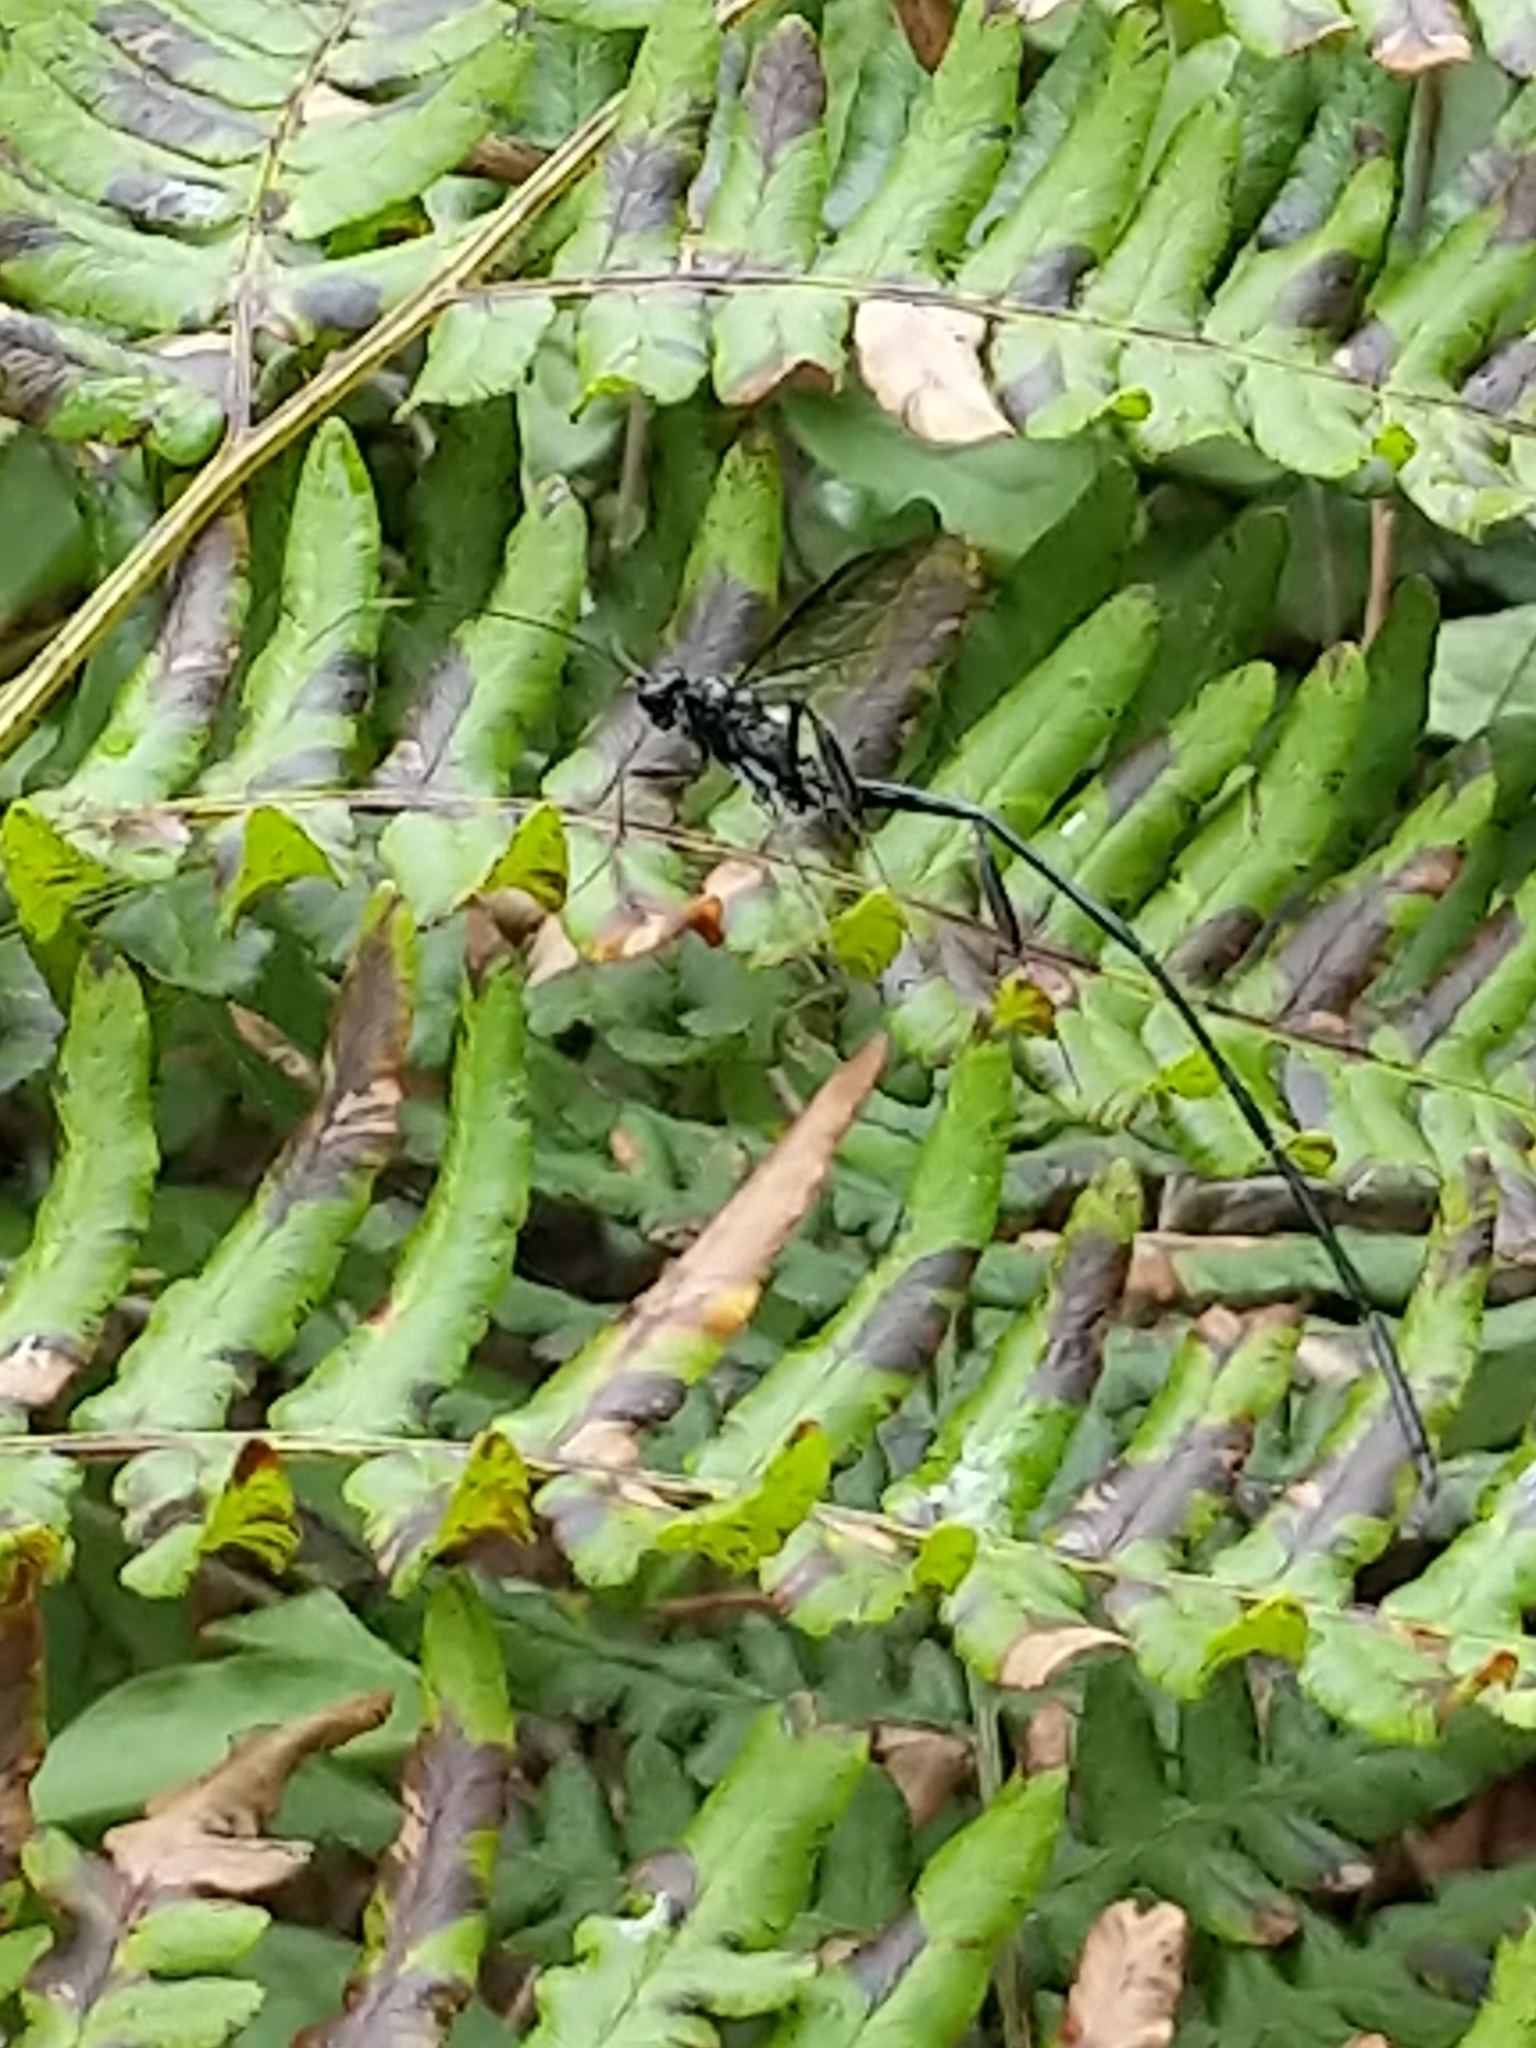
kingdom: Animalia
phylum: Arthropoda
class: Insecta
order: Hymenoptera
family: Pelecinidae
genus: Pelecinus
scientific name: Pelecinus polyturator
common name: American pelecinid wasp
